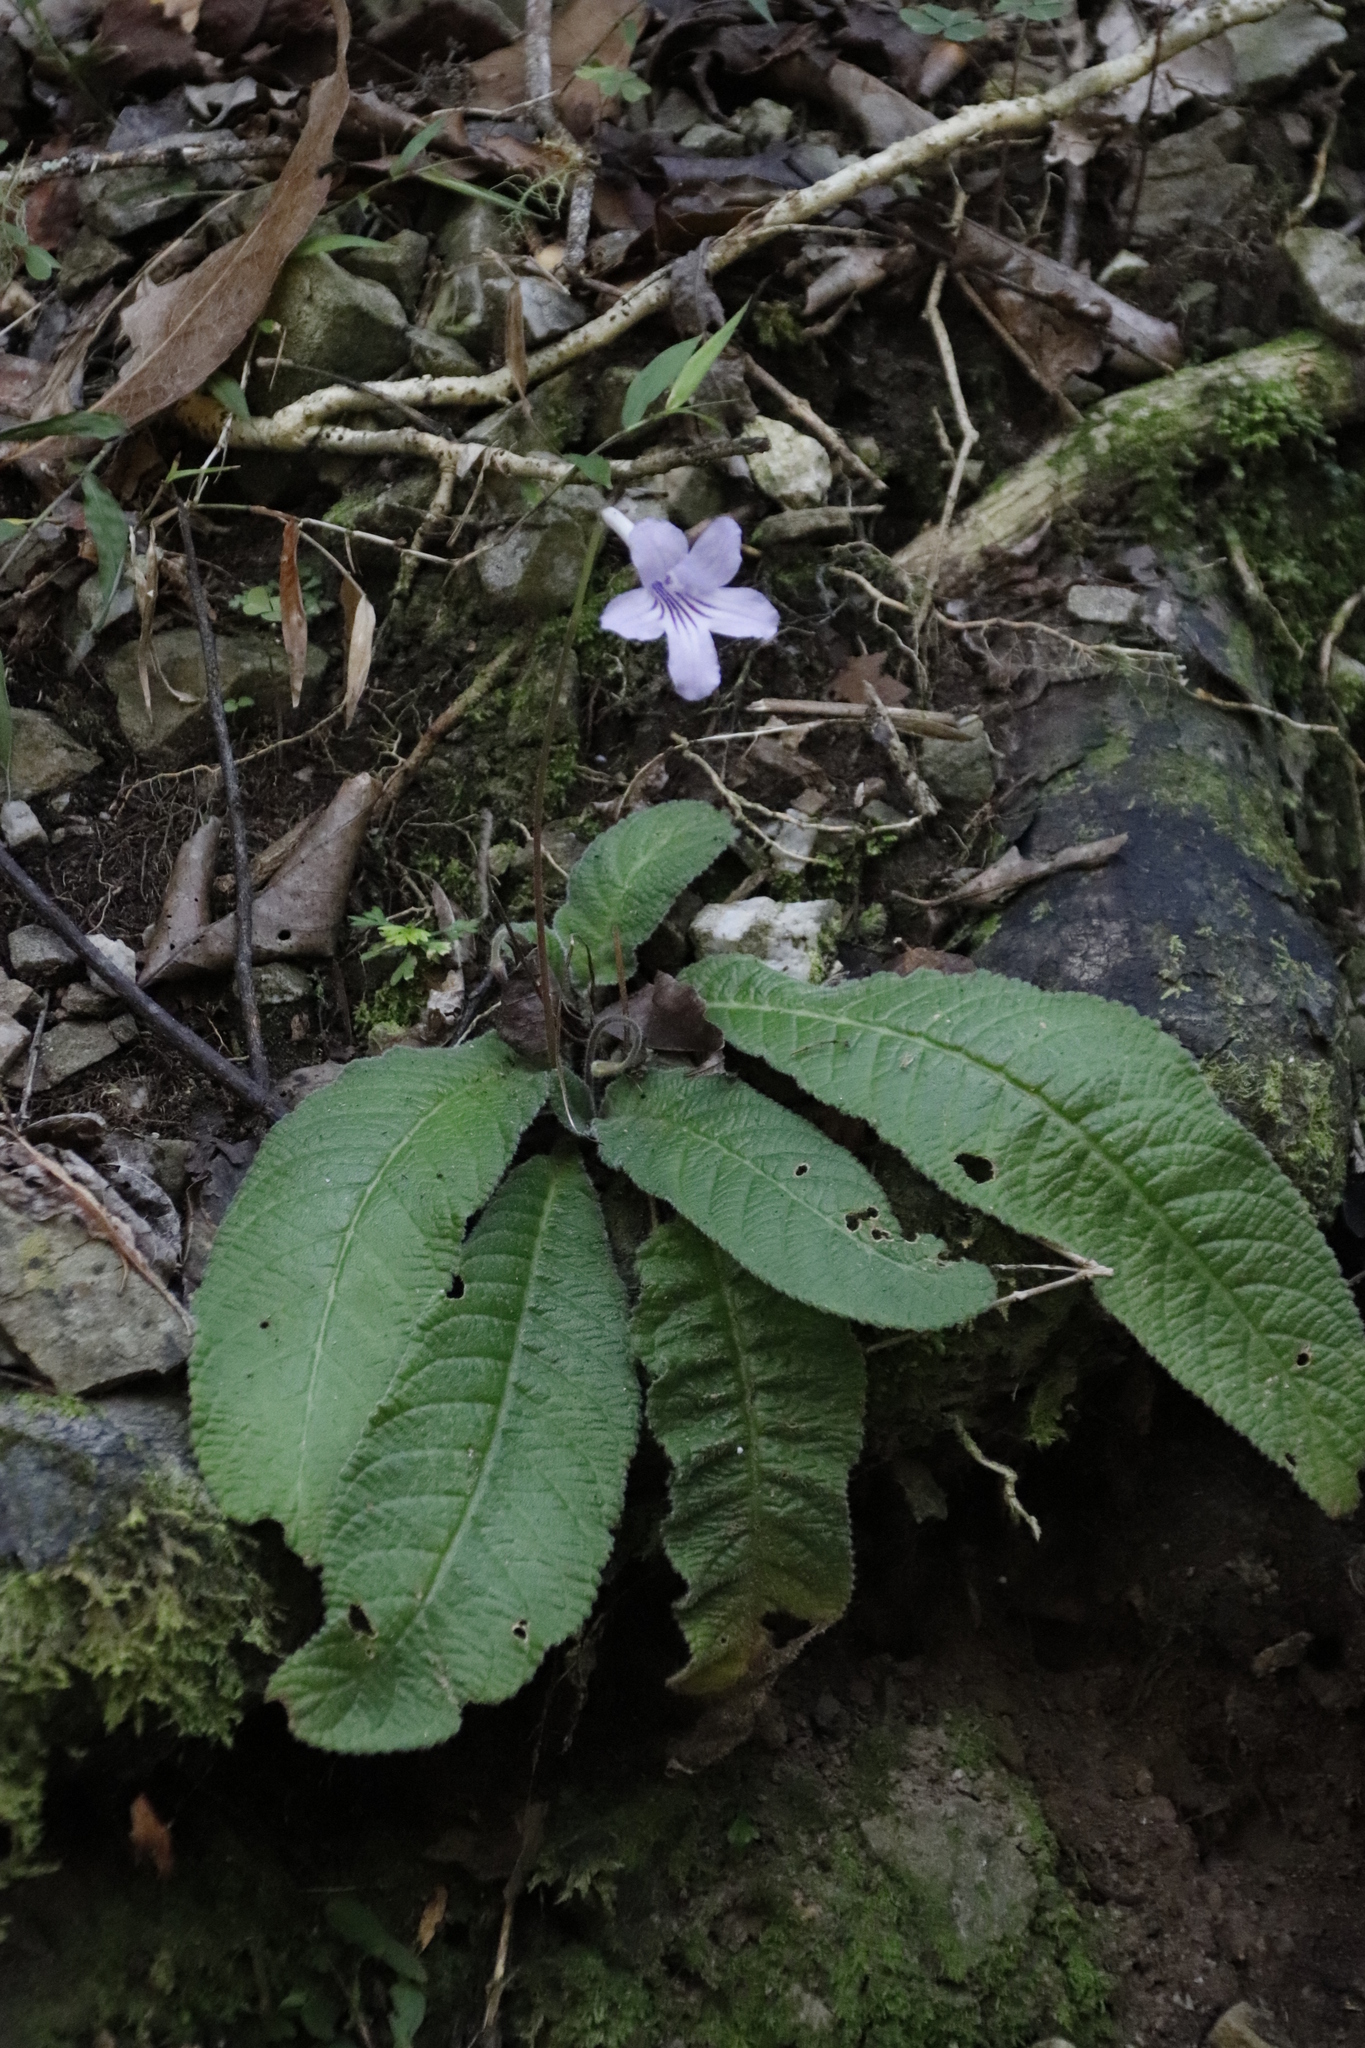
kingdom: Plantae
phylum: Tracheophyta
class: Magnoliopsida
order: Lamiales
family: Gesneriaceae
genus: Streptocarpus
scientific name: Streptocarpus rexii
